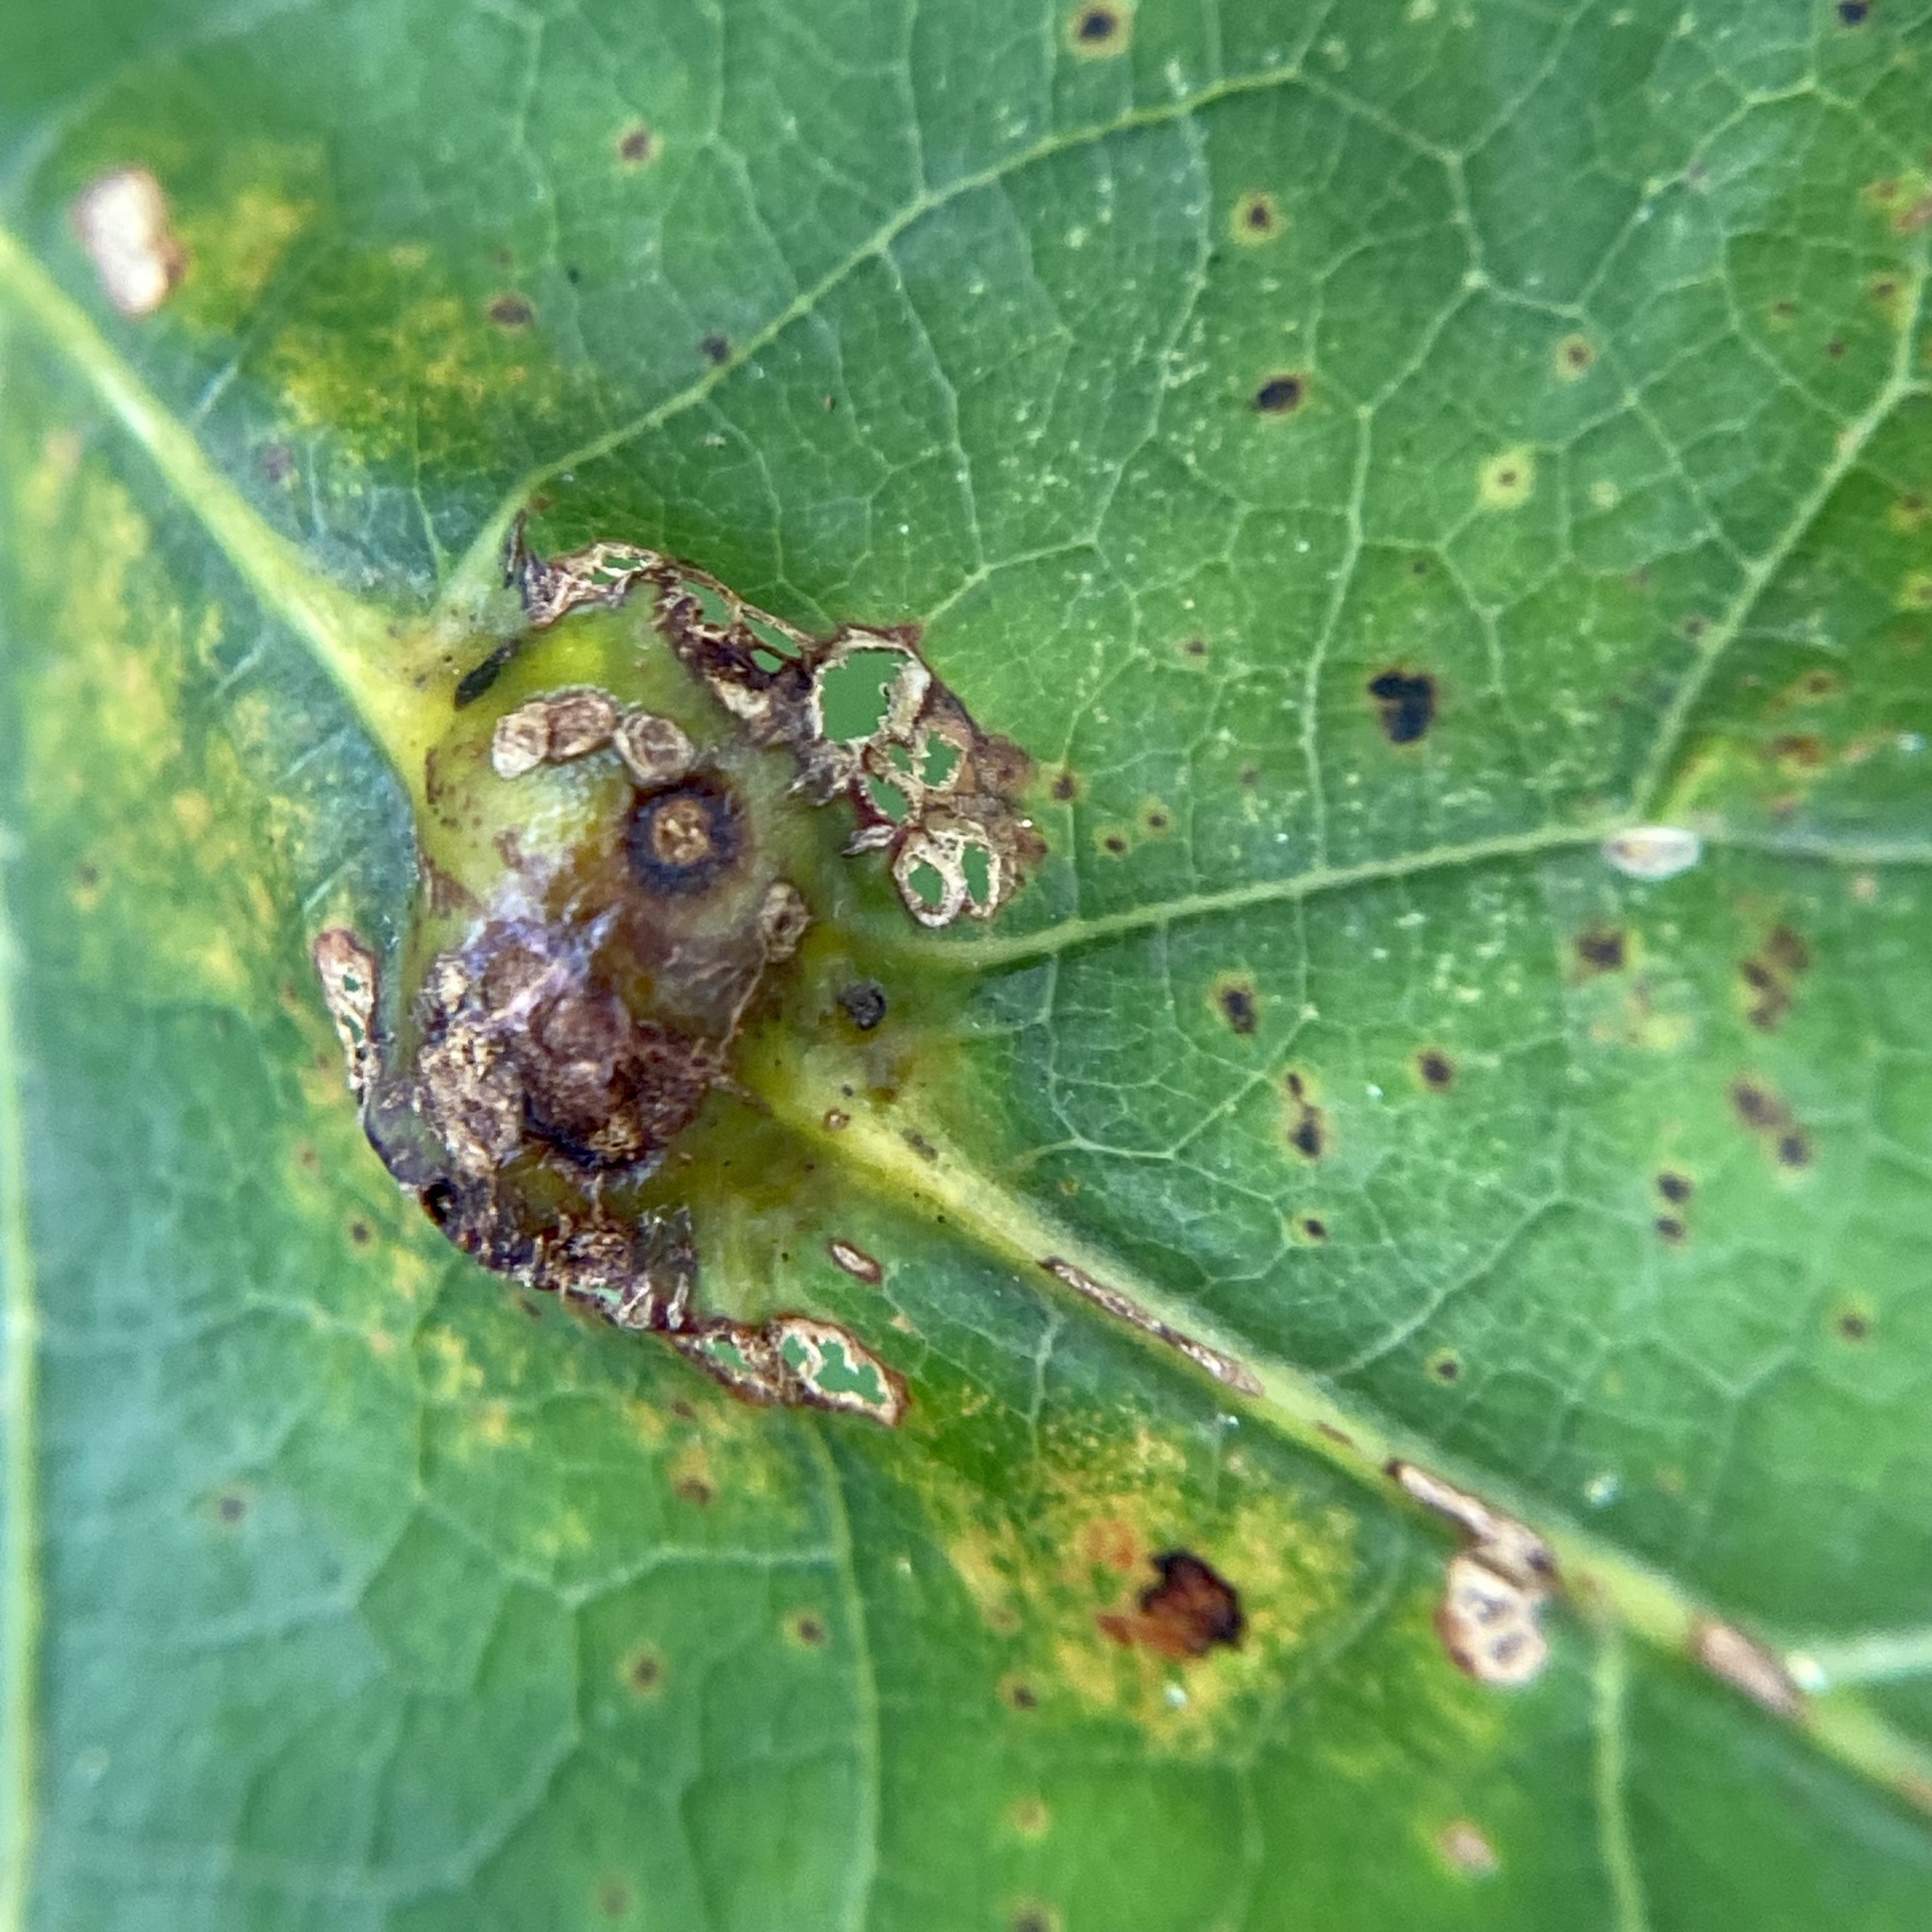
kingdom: Animalia
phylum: Arthropoda
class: Insecta
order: Hymenoptera
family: Cynipidae
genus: Callirhytis
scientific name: Callirhytis
